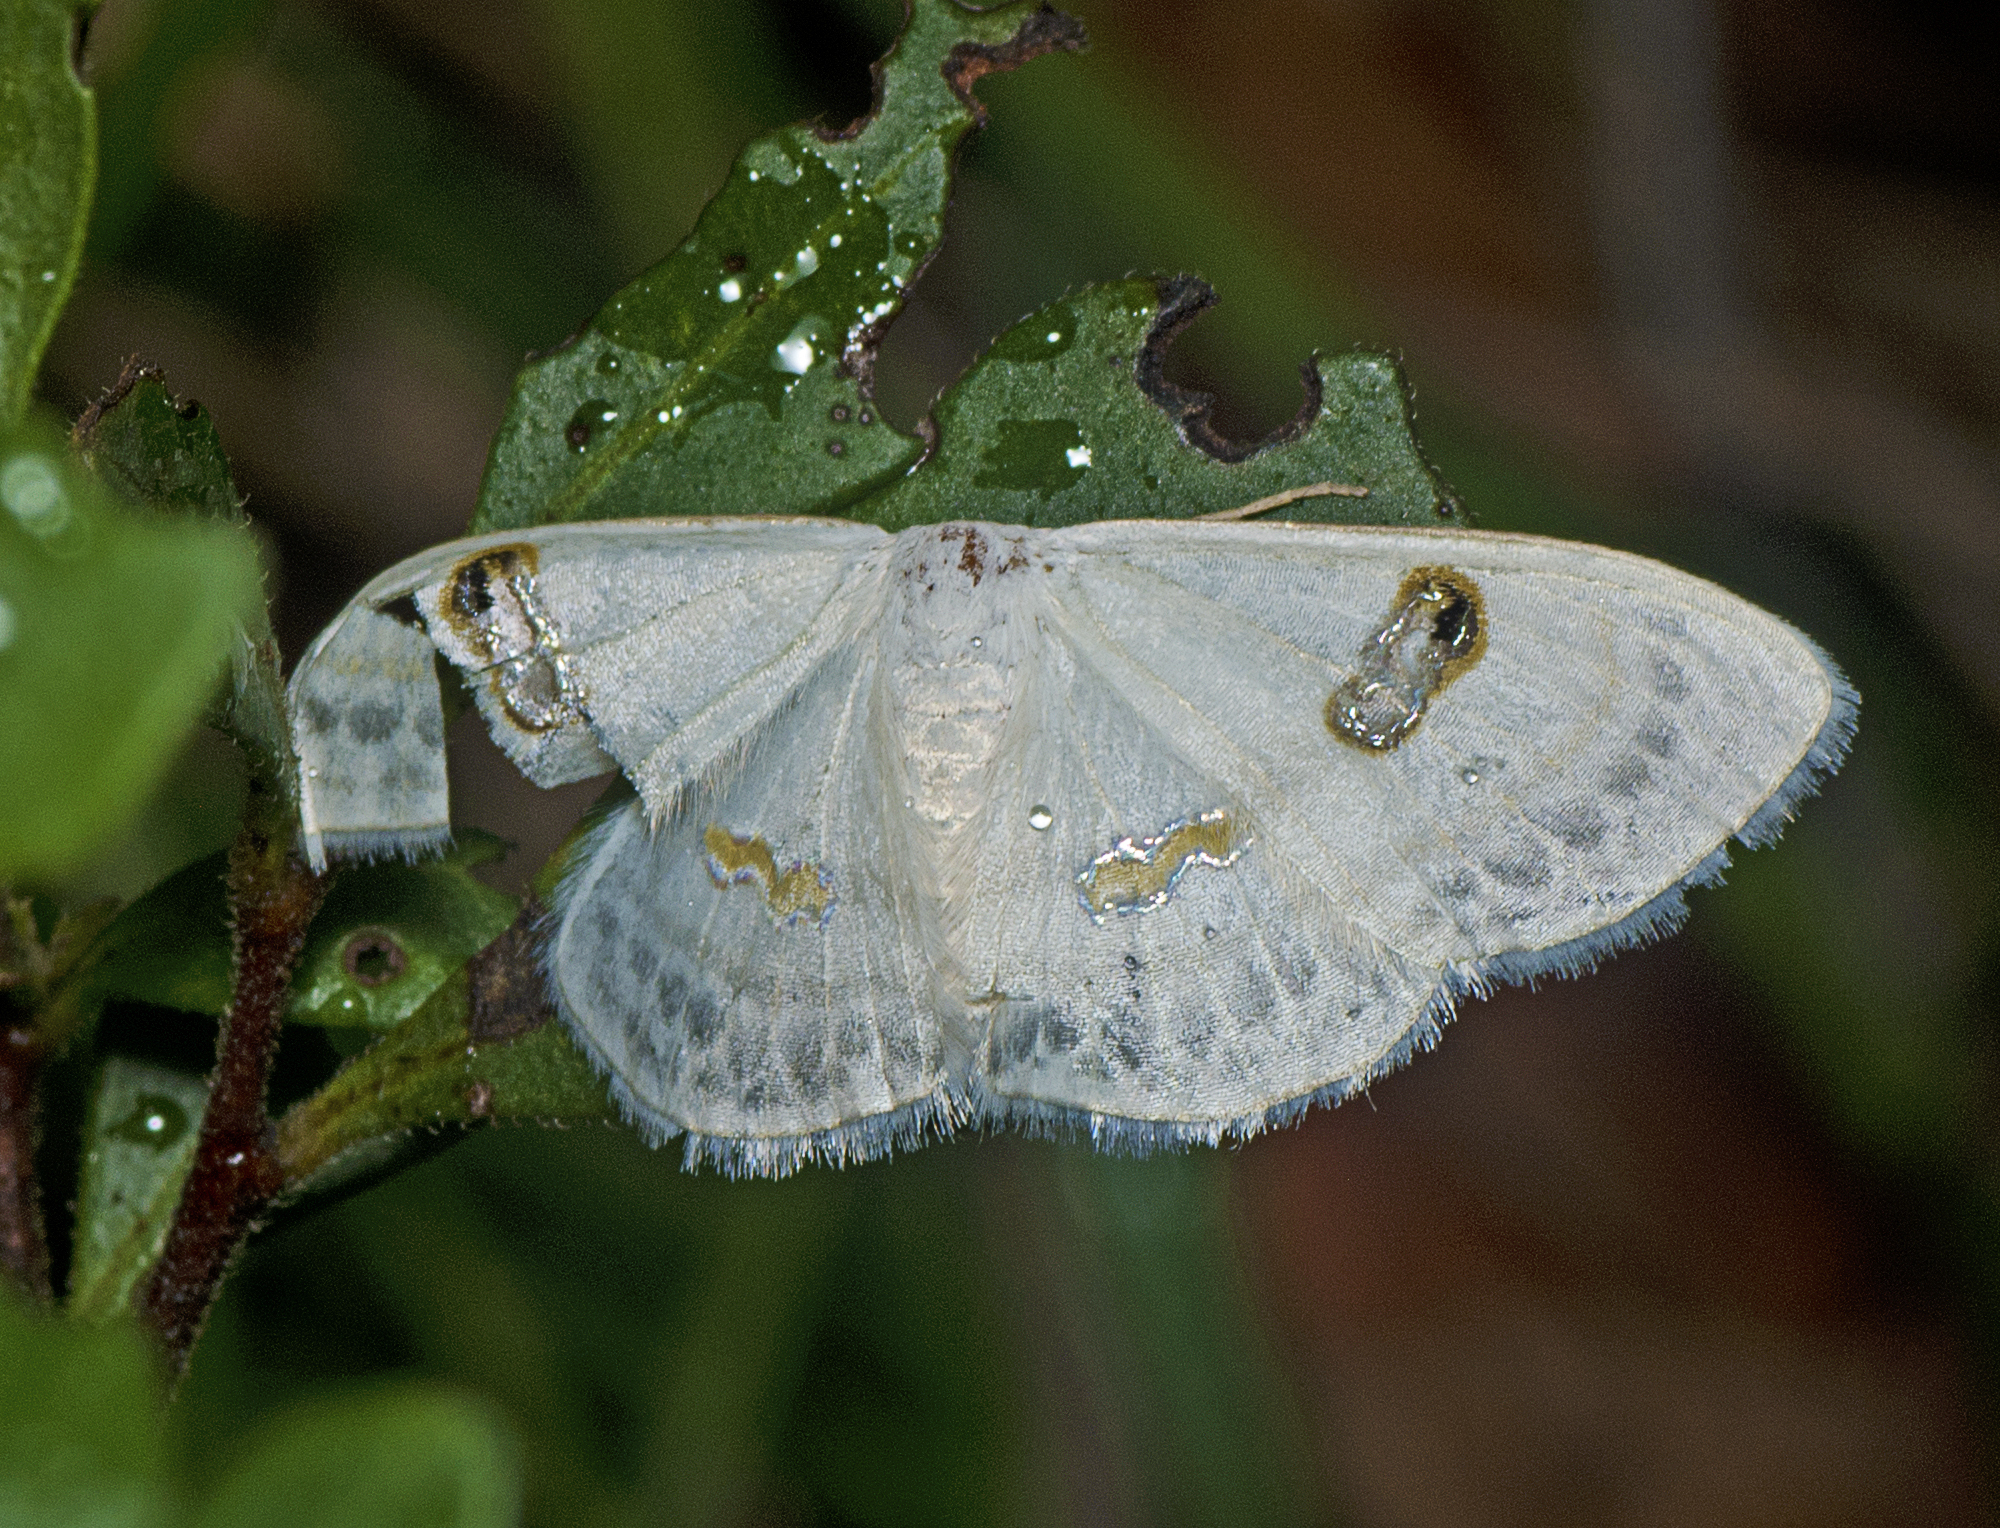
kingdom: Animalia
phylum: Arthropoda
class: Insecta
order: Lepidoptera
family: Geometridae
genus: Problepsis
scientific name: Problepsis sancta
